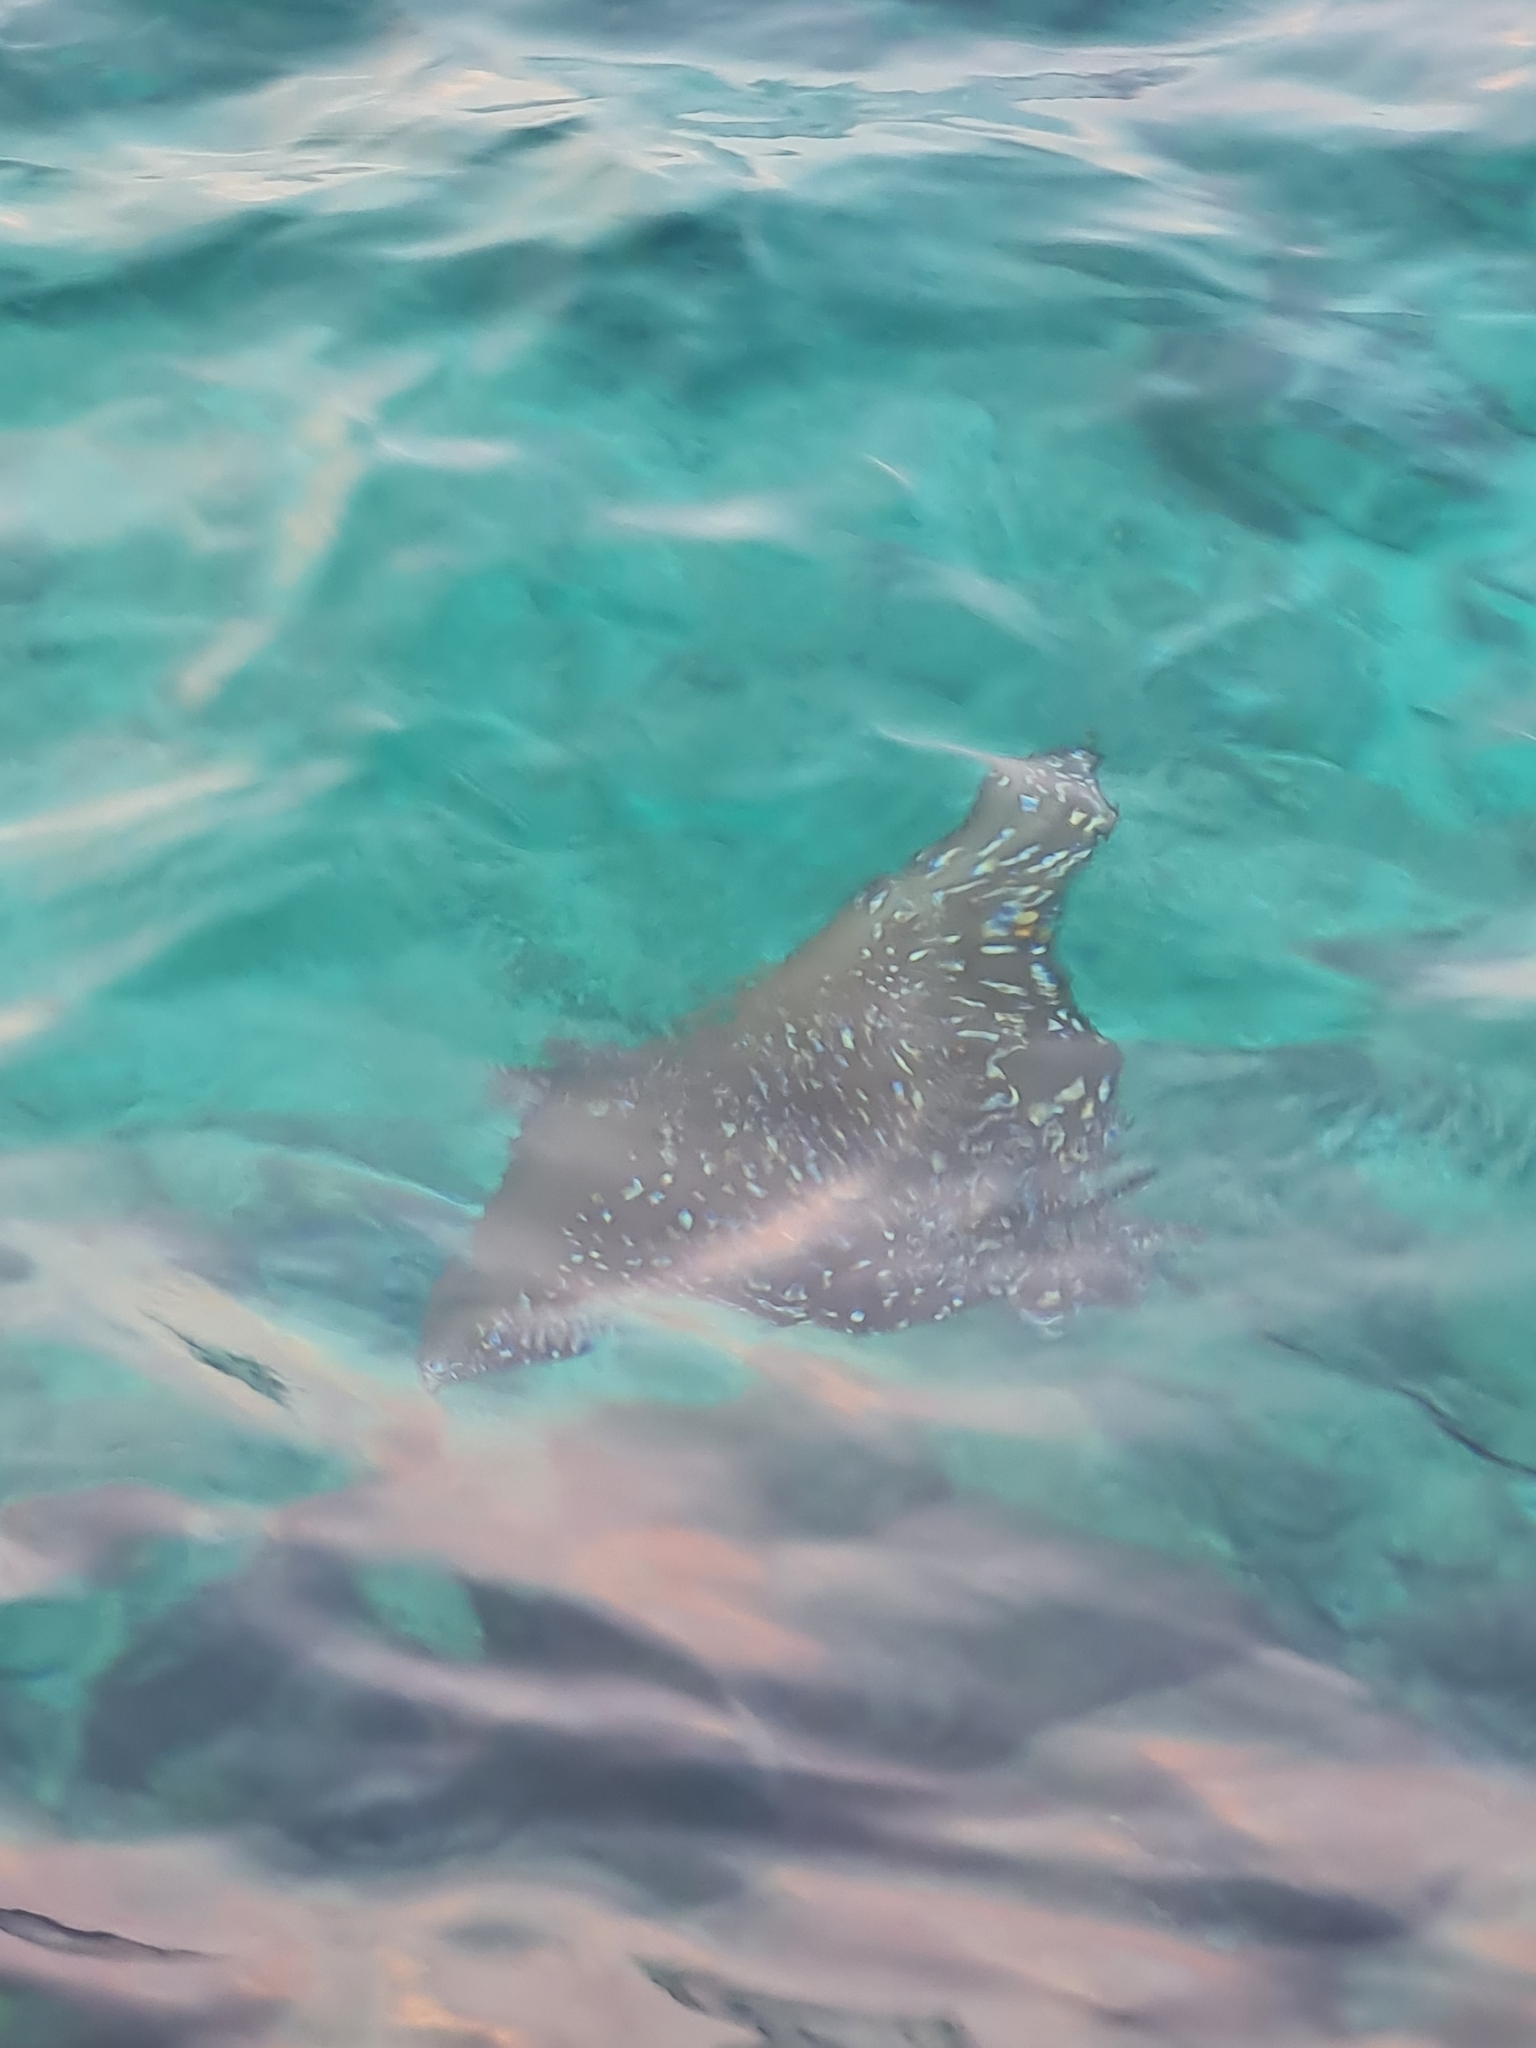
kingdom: Animalia
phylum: Chordata
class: Elasmobranchii
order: Myliobatiformes
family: Myliobatidae
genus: Aetobatus
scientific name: Aetobatus ocellatus
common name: Ocellated eagle ray
